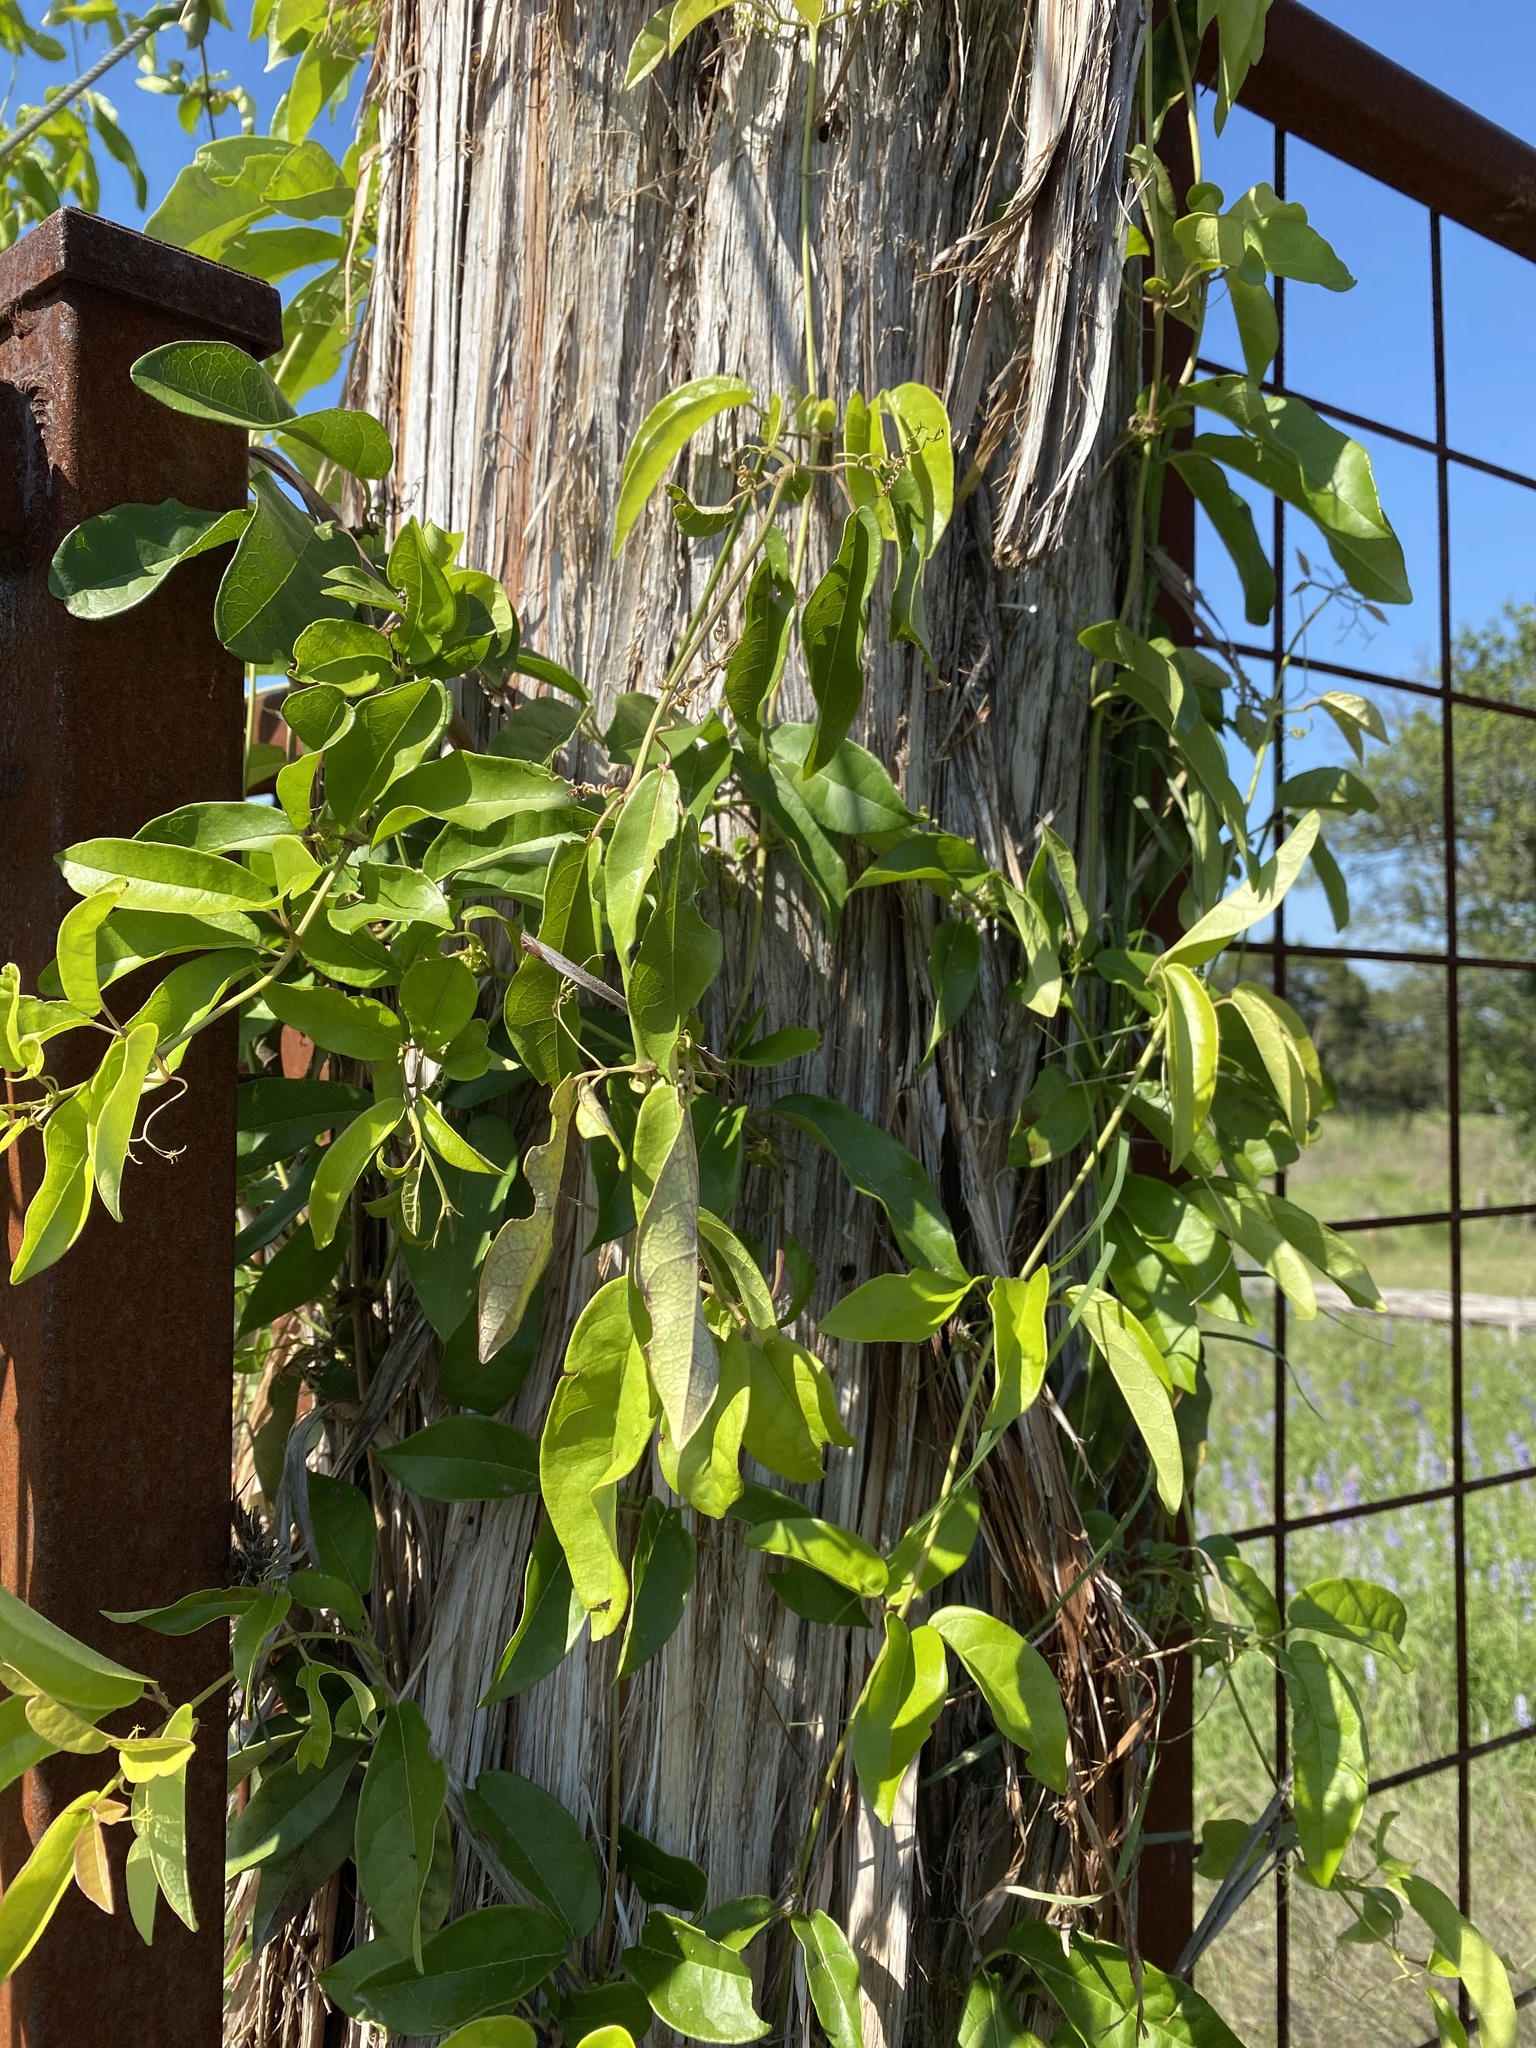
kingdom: Plantae
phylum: Tracheophyta
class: Magnoliopsida
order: Lamiales
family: Bignoniaceae
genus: Bignonia
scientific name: Bignonia capreolata
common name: Crossvine
